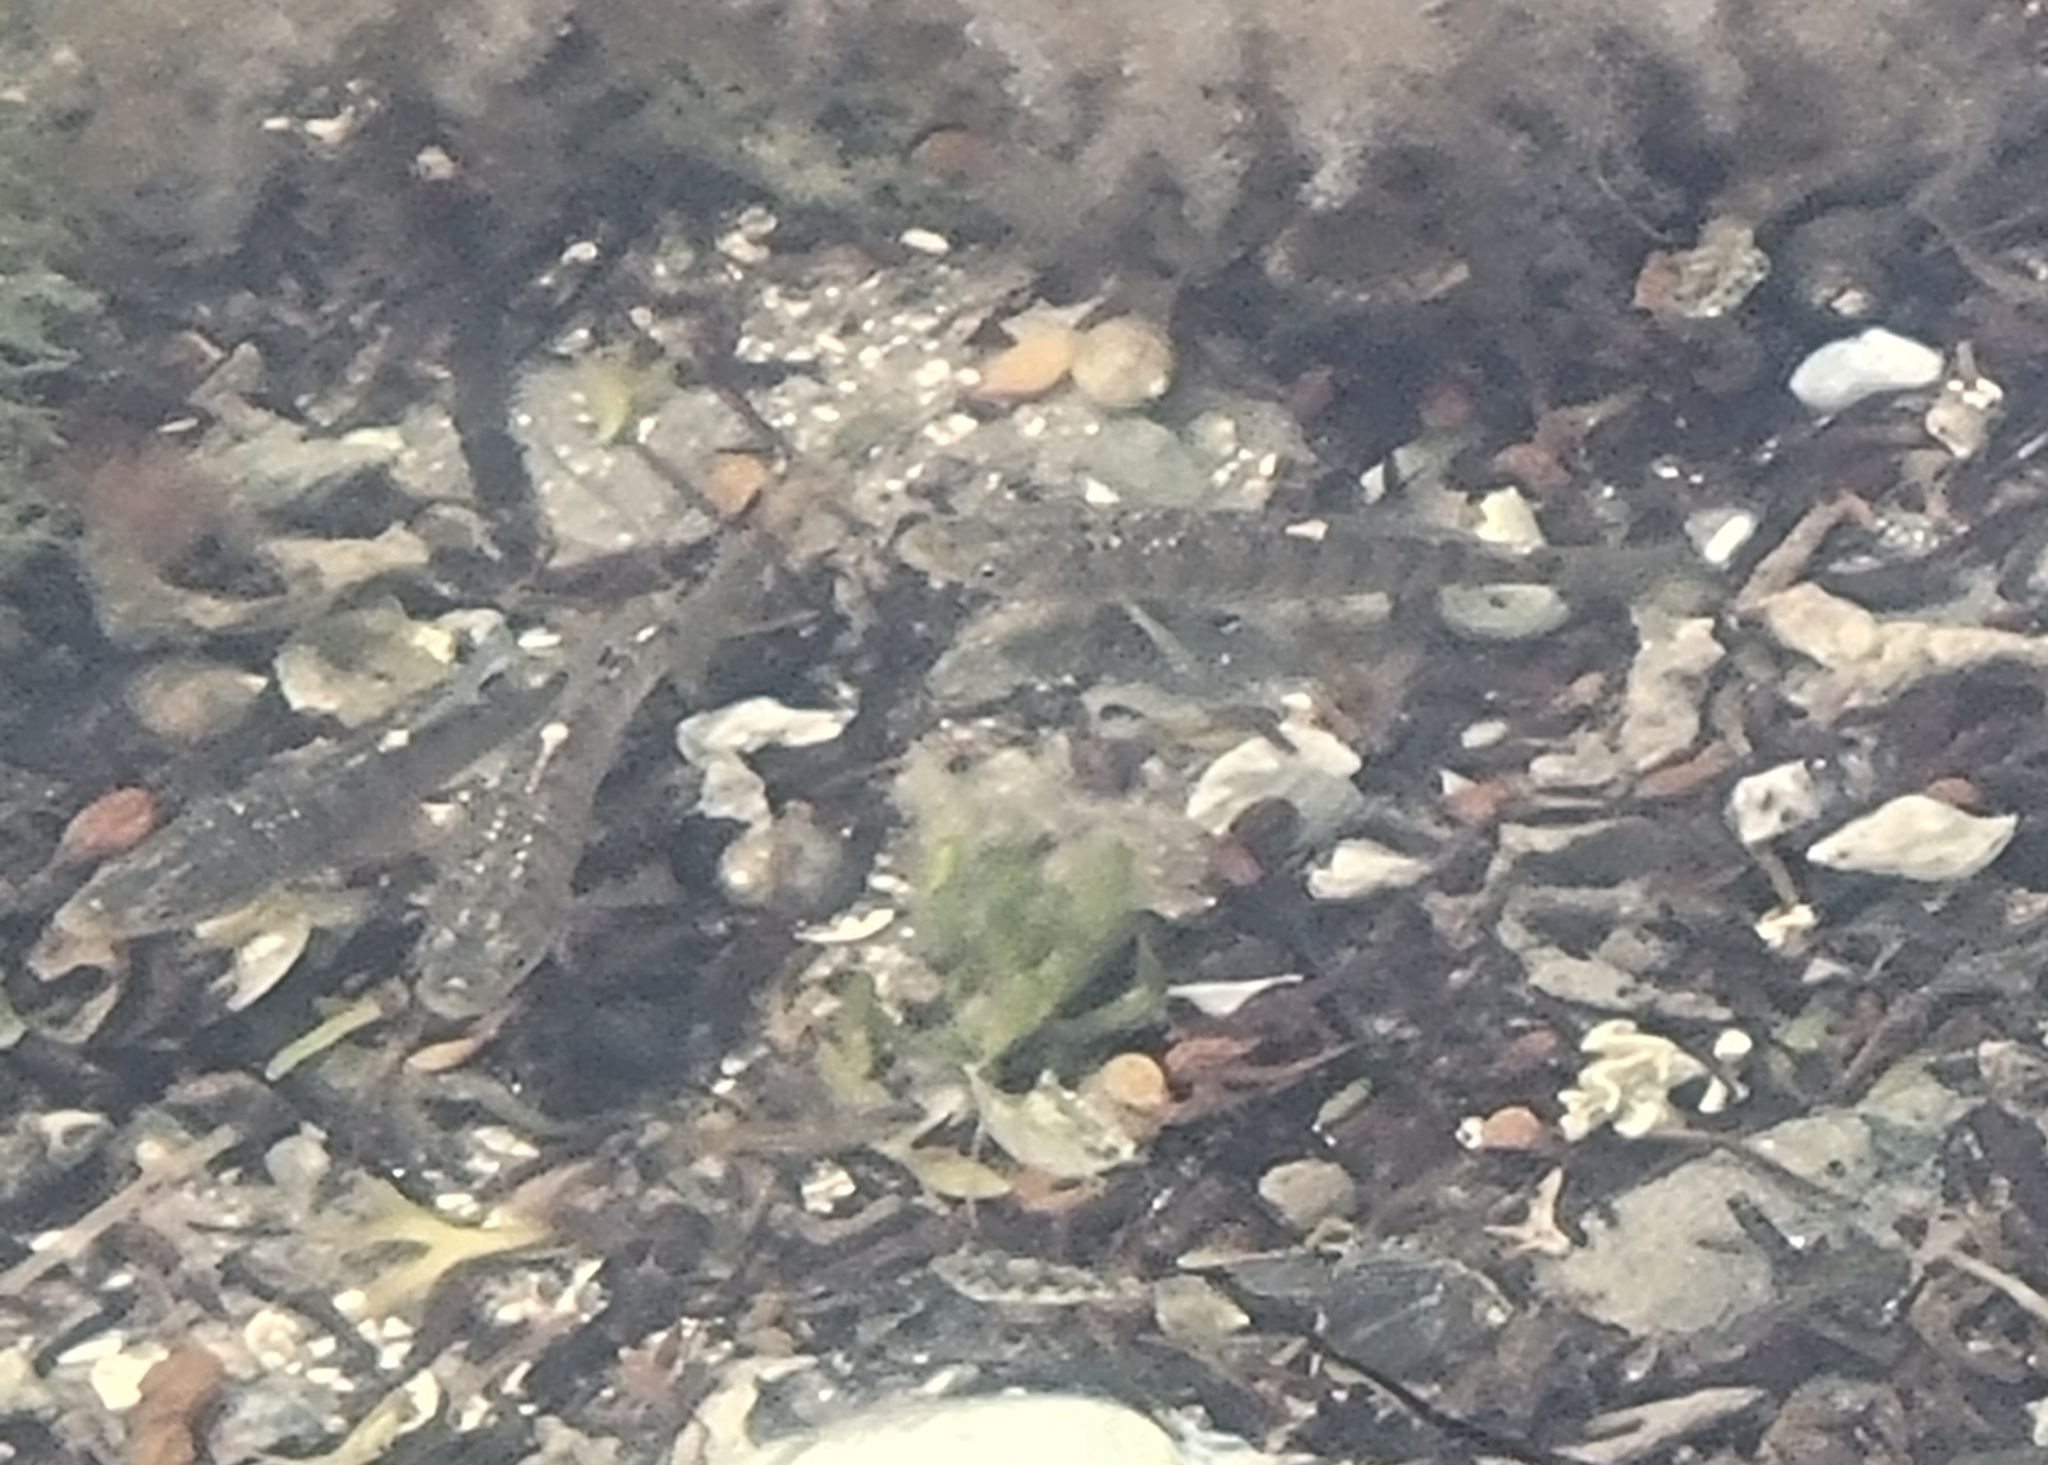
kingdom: Animalia
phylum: Chordata
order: Cyprinodontiformes
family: Fundulidae
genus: Fundulus
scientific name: Fundulus majalis
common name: Striped killifish
